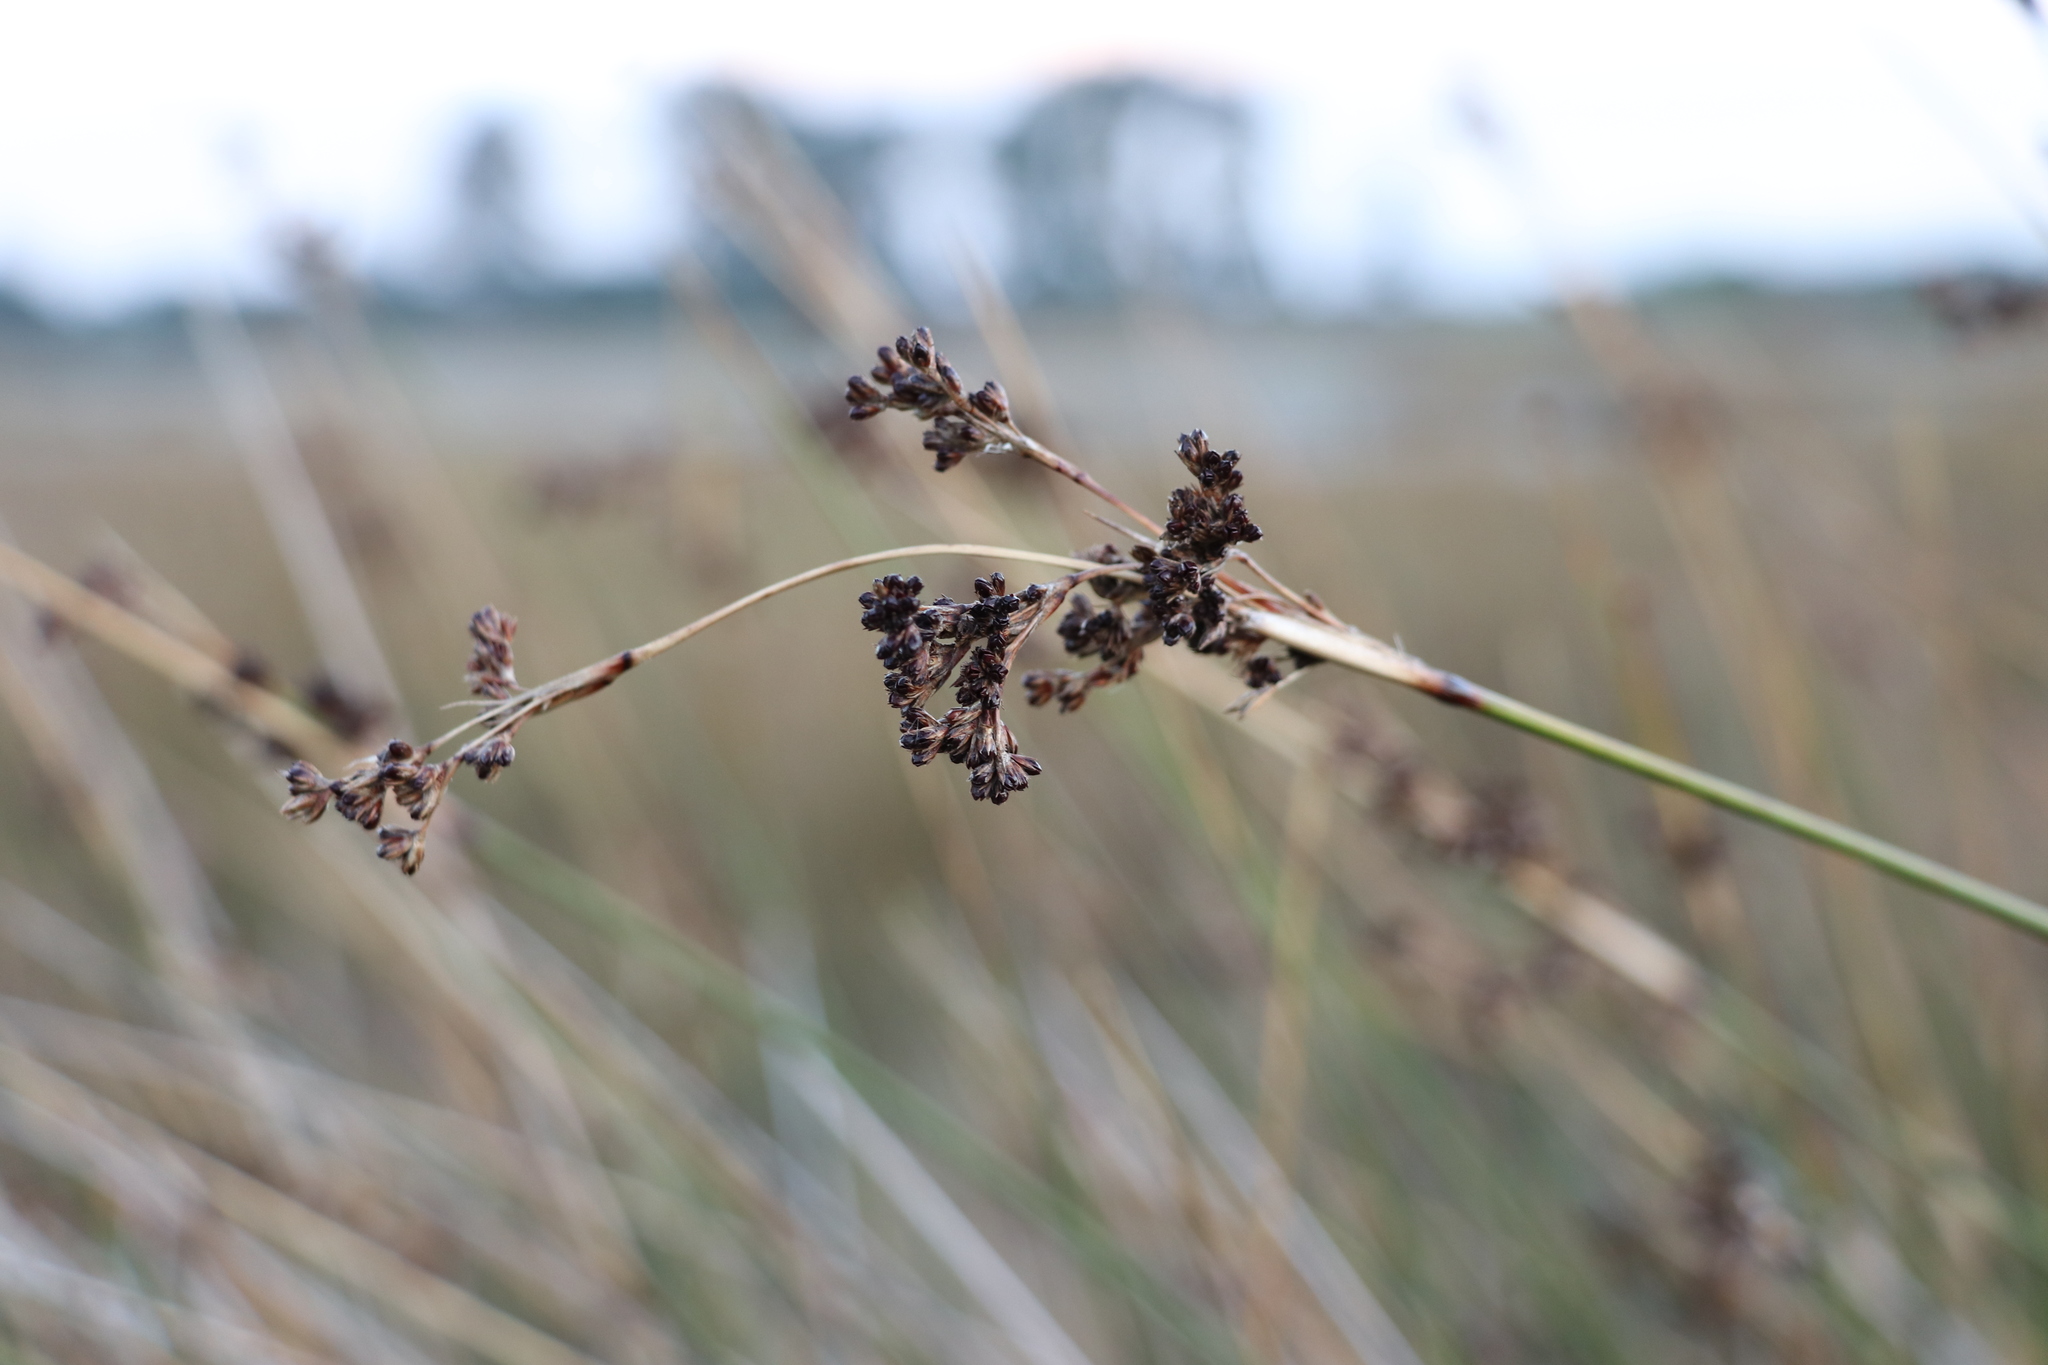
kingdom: Plantae
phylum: Tracheophyta
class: Liliopsida
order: Poales
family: Juncaceae
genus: Juncus
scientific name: Juncus kraussii
